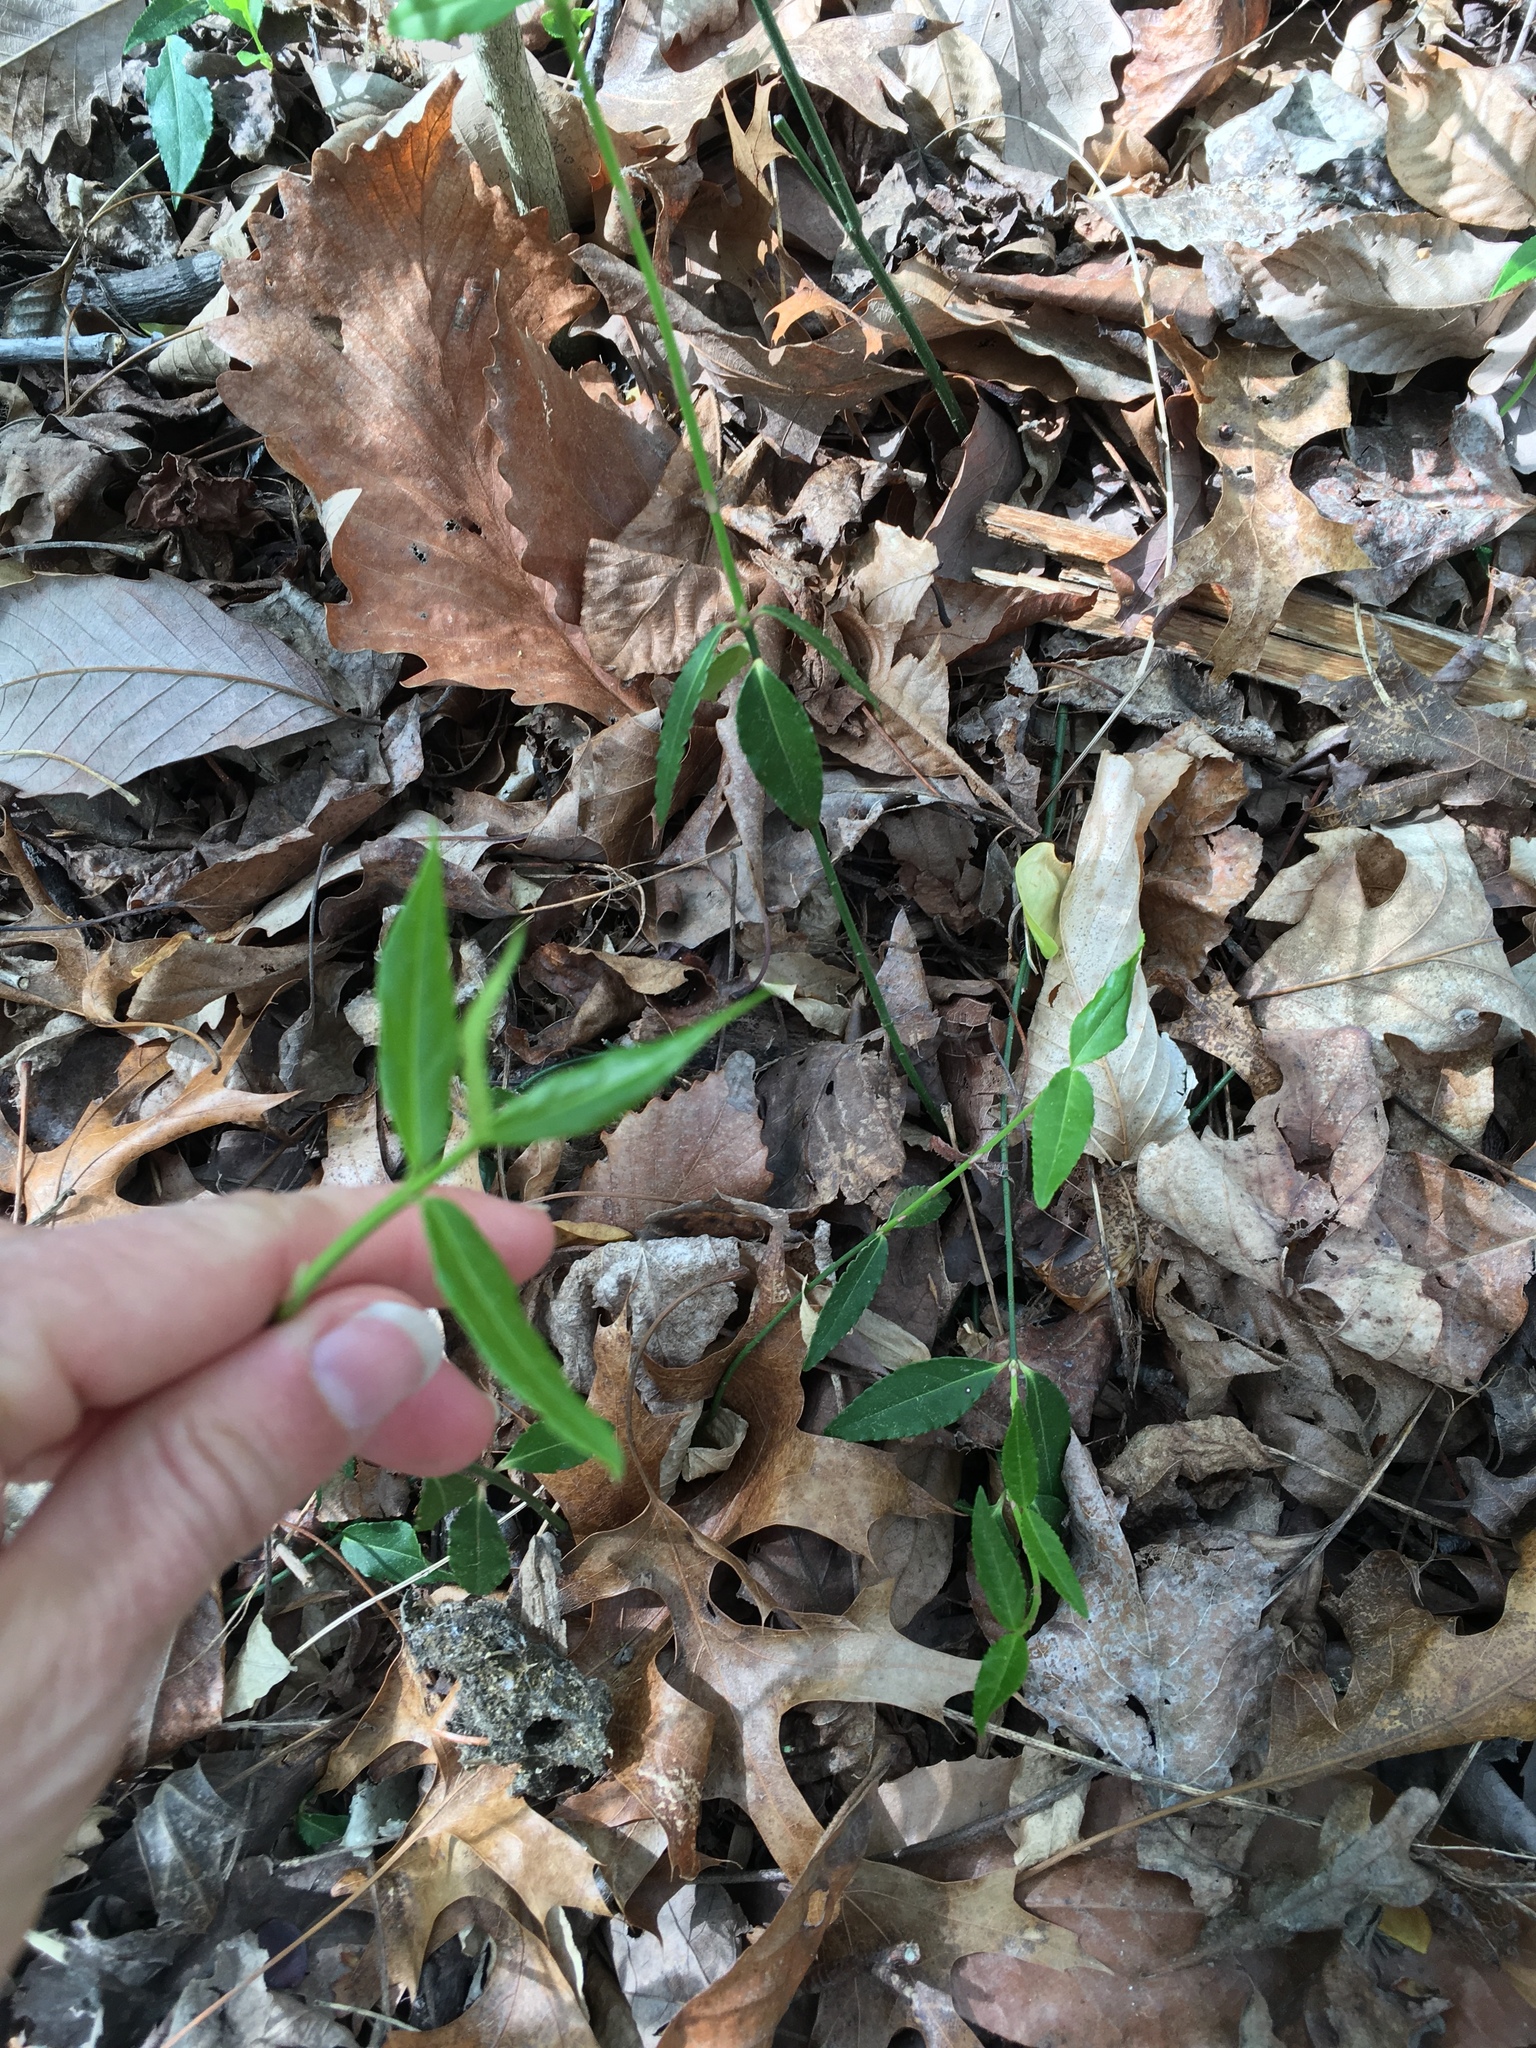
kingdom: Plantae
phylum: Tracheophyta
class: Magnoliopsida
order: Celastrales
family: Celastraceae
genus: Euonymus
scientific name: Euonymus americanus
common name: Bursting-heart
